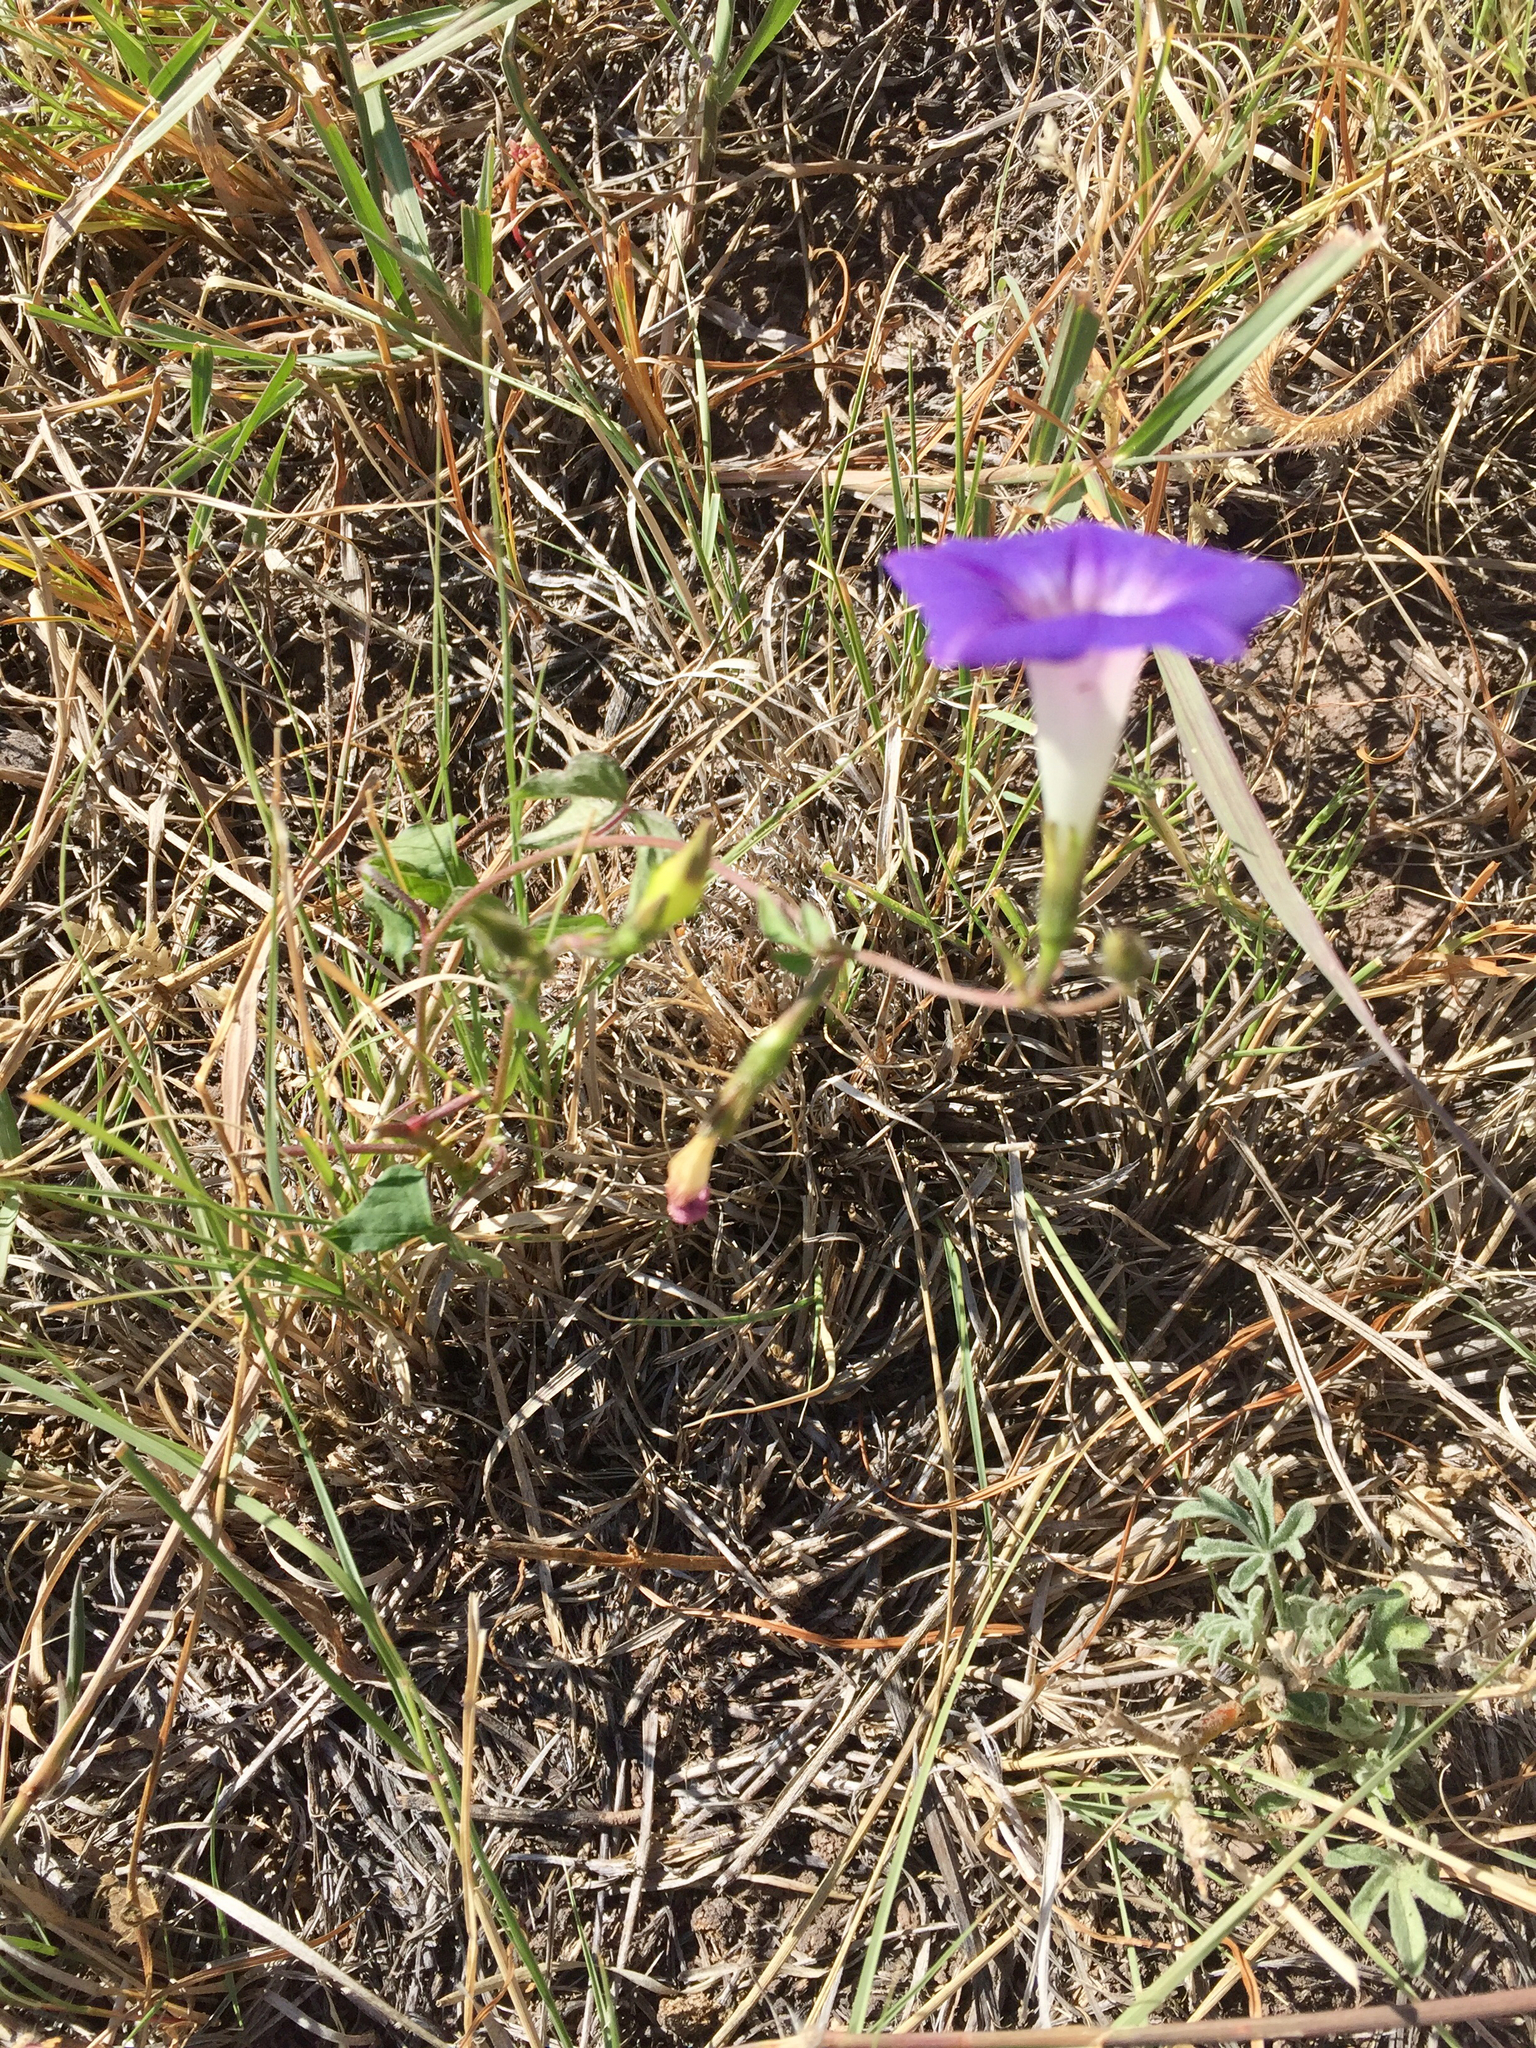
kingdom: Plantae
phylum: Tracheophyta
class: Magnoliopsida
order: Solanales
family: Convolvulaceae
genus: Ipomoea
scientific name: Ipomoea purpurea
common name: Common morning-glory
